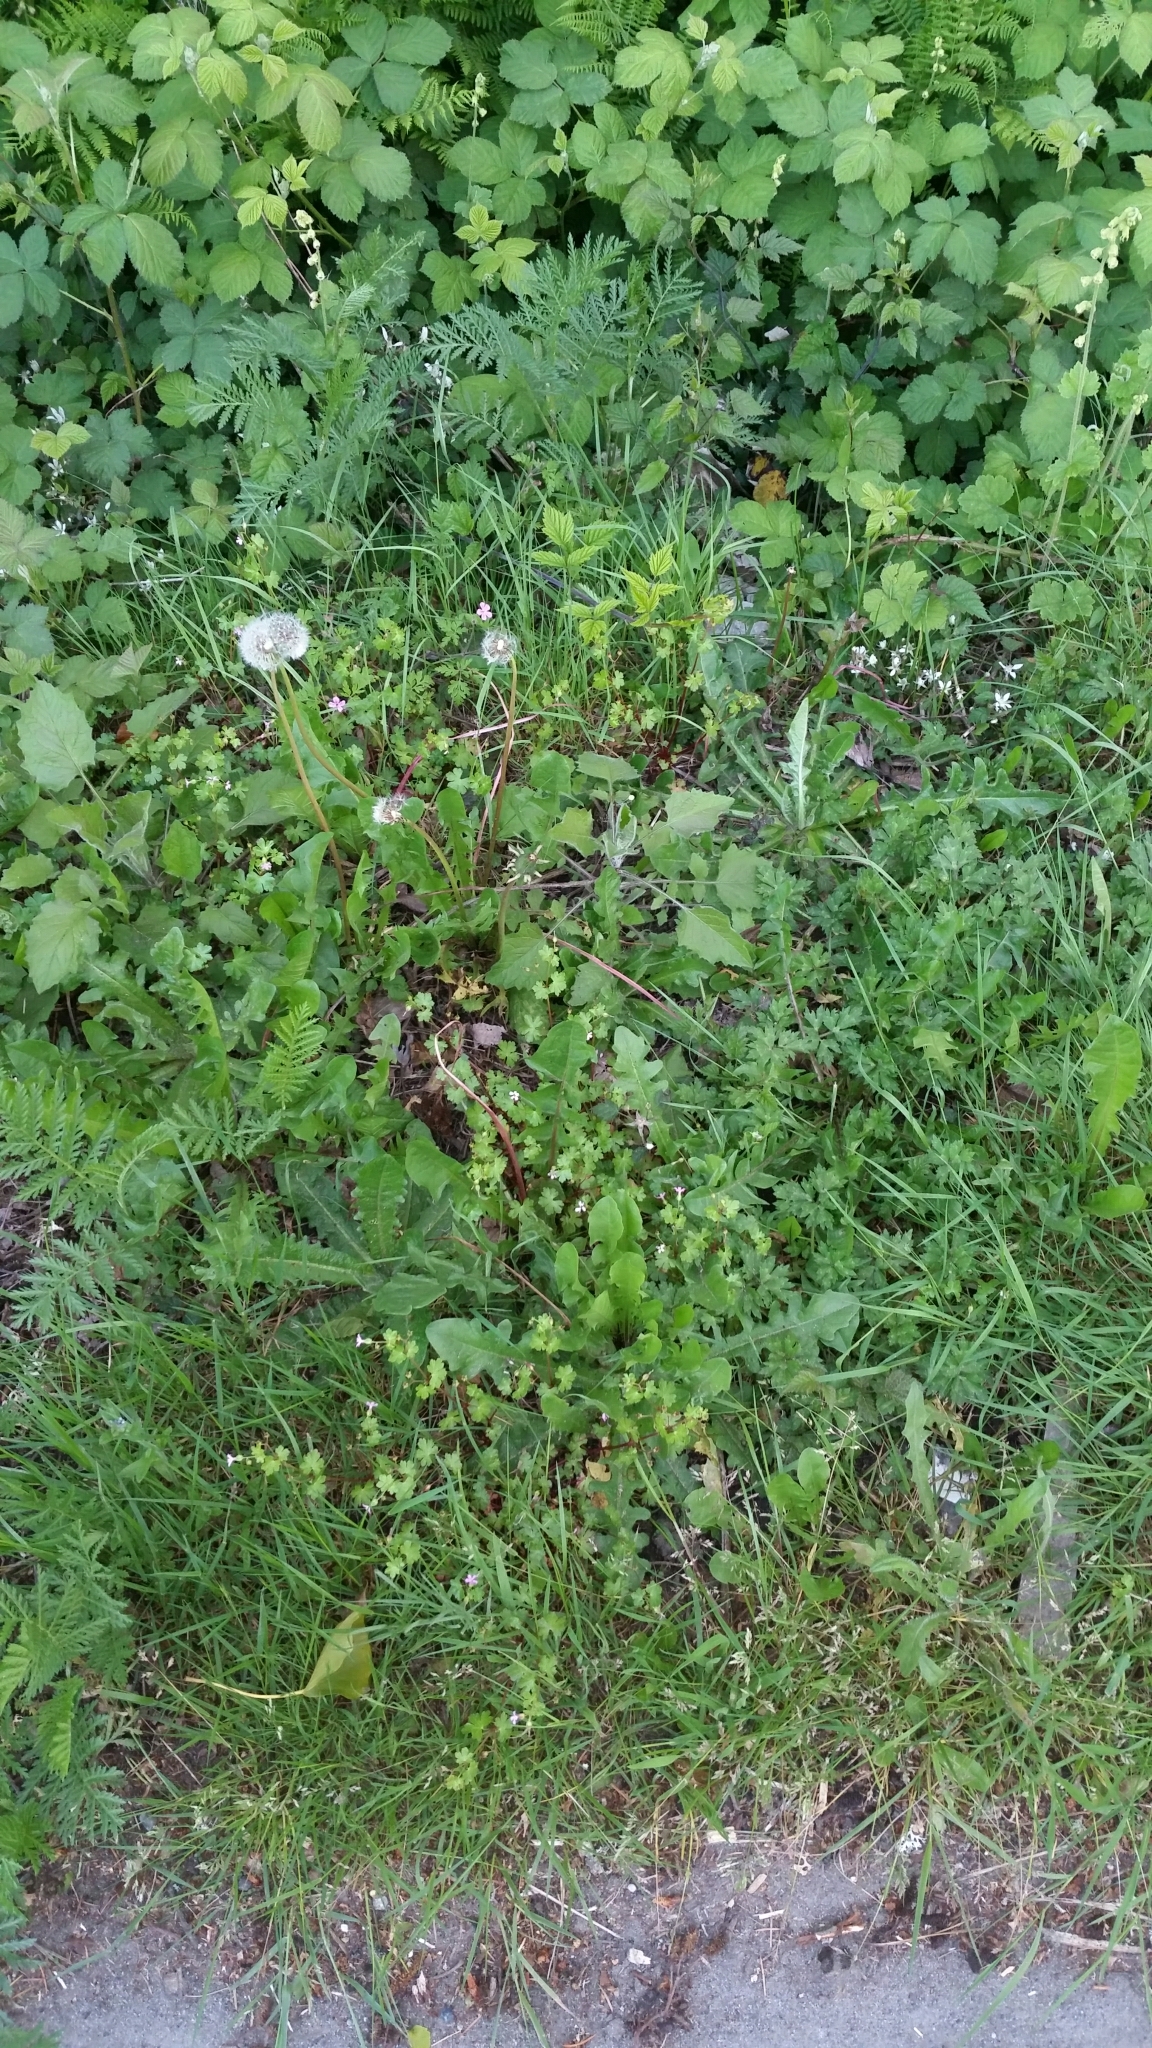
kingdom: Plantae
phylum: Tracheophyta
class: Magnoliopsida
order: Geraniales
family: Geraniaceae
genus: Geranium
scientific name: Geranium lucidum
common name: Shining crane's-bill
